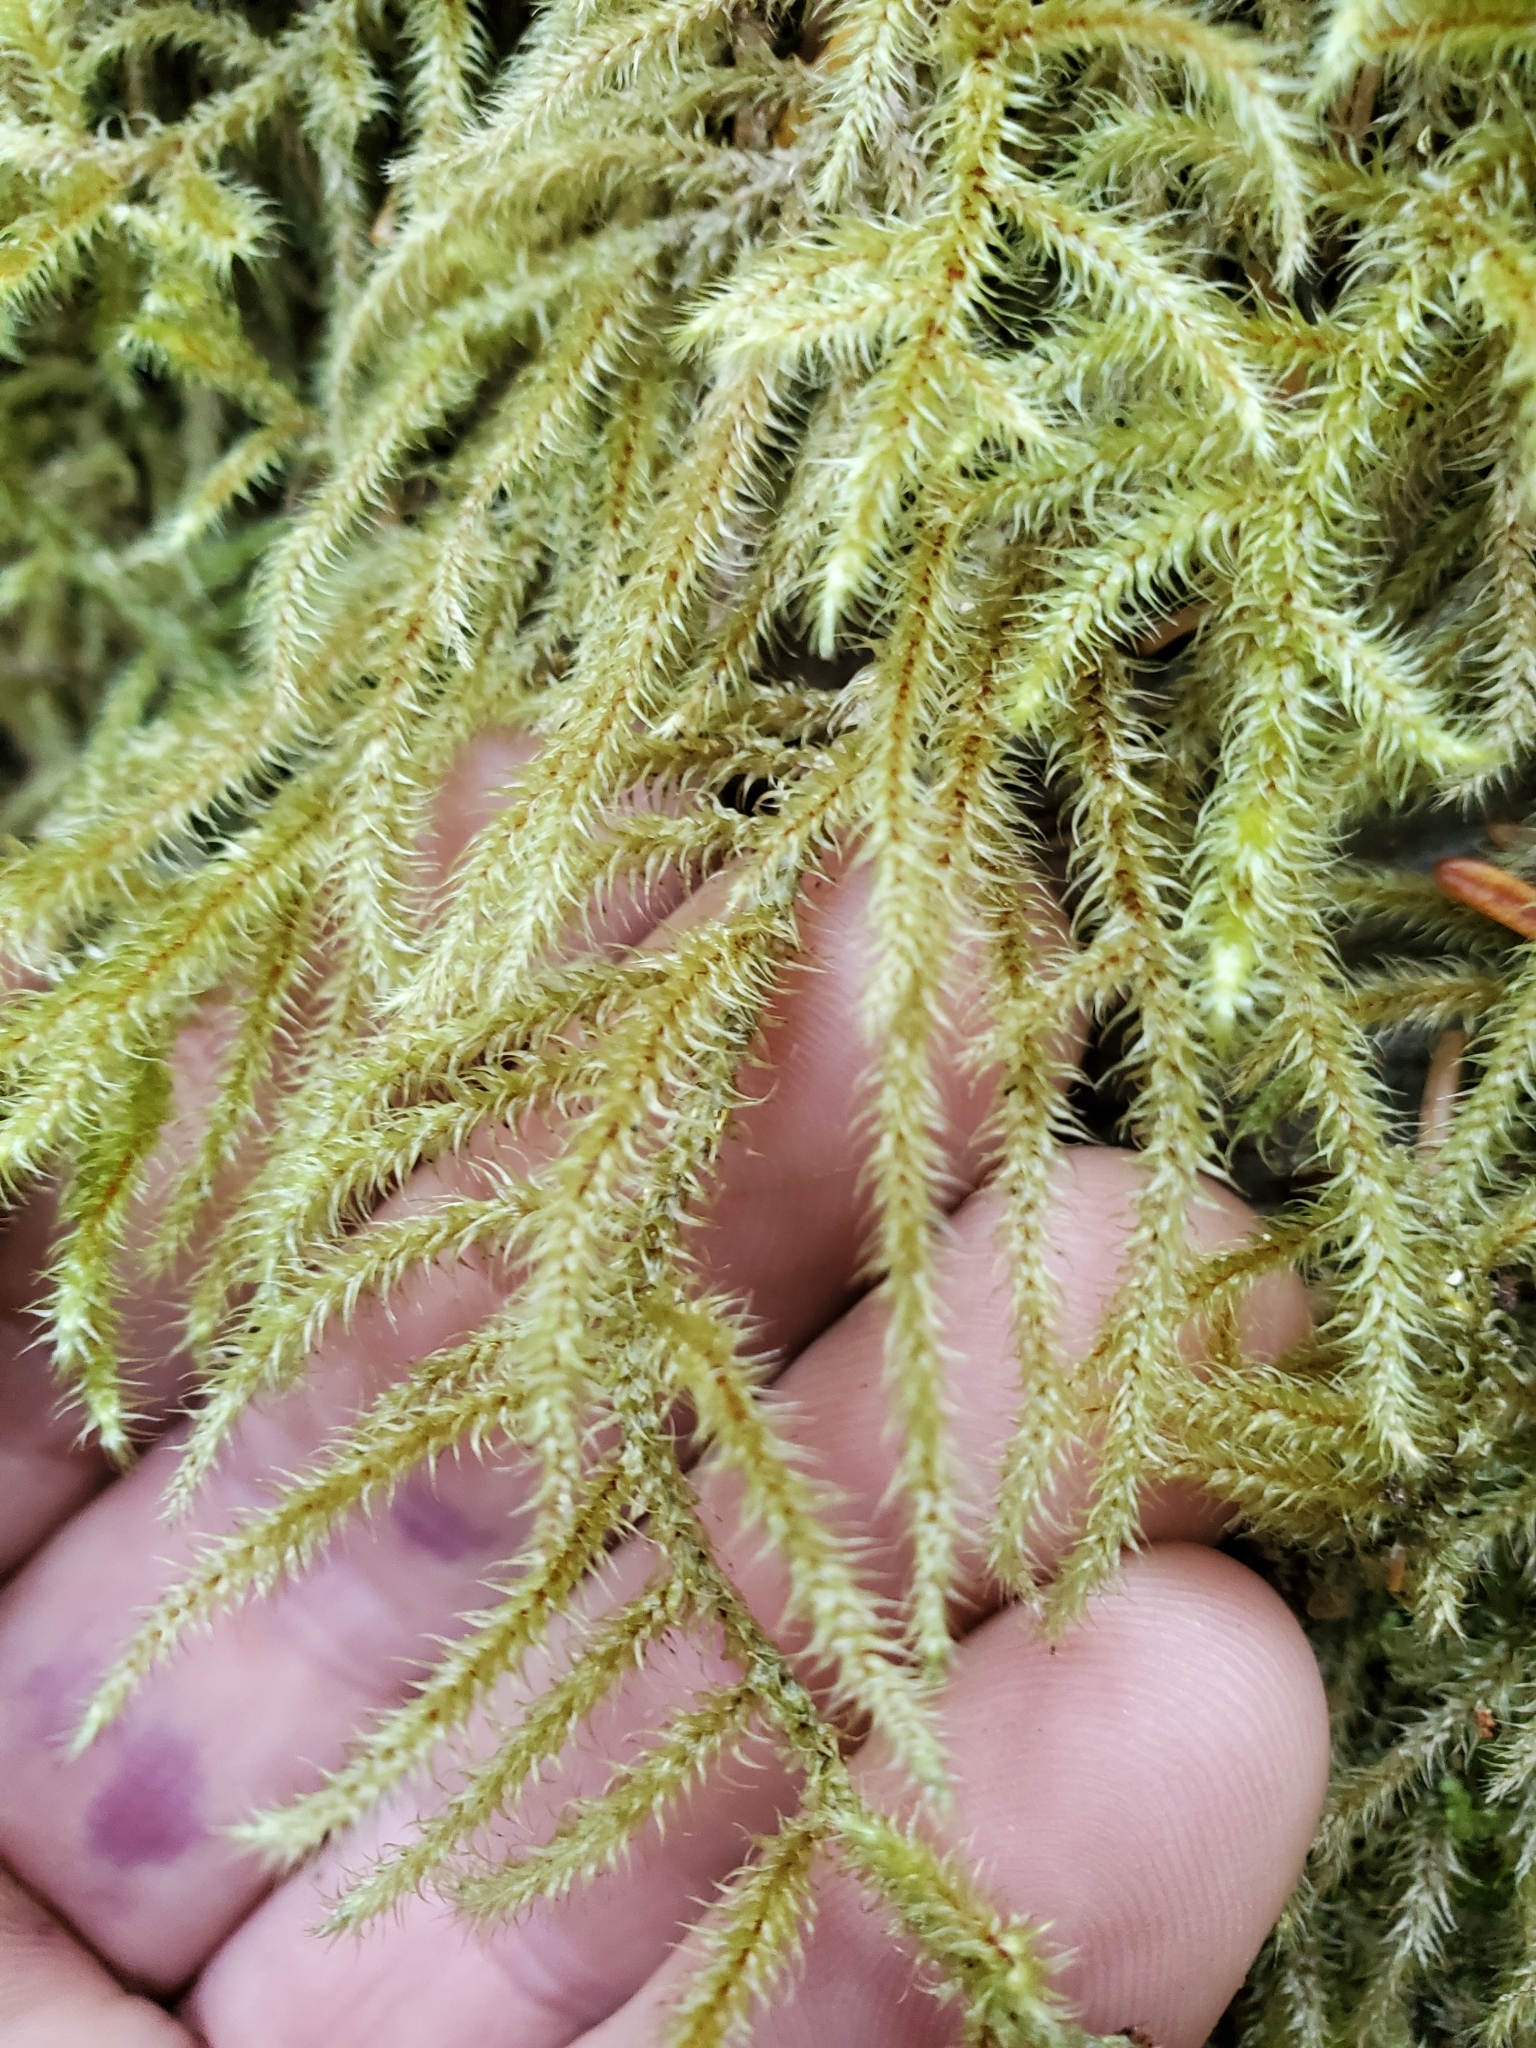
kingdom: Plantae
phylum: Bryophyta
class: Bryopsida
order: Hypnales
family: Hylocomiaceae
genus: Rhytidiadelphus
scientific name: Rhytidiadelphus loreus
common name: Lanky moss
